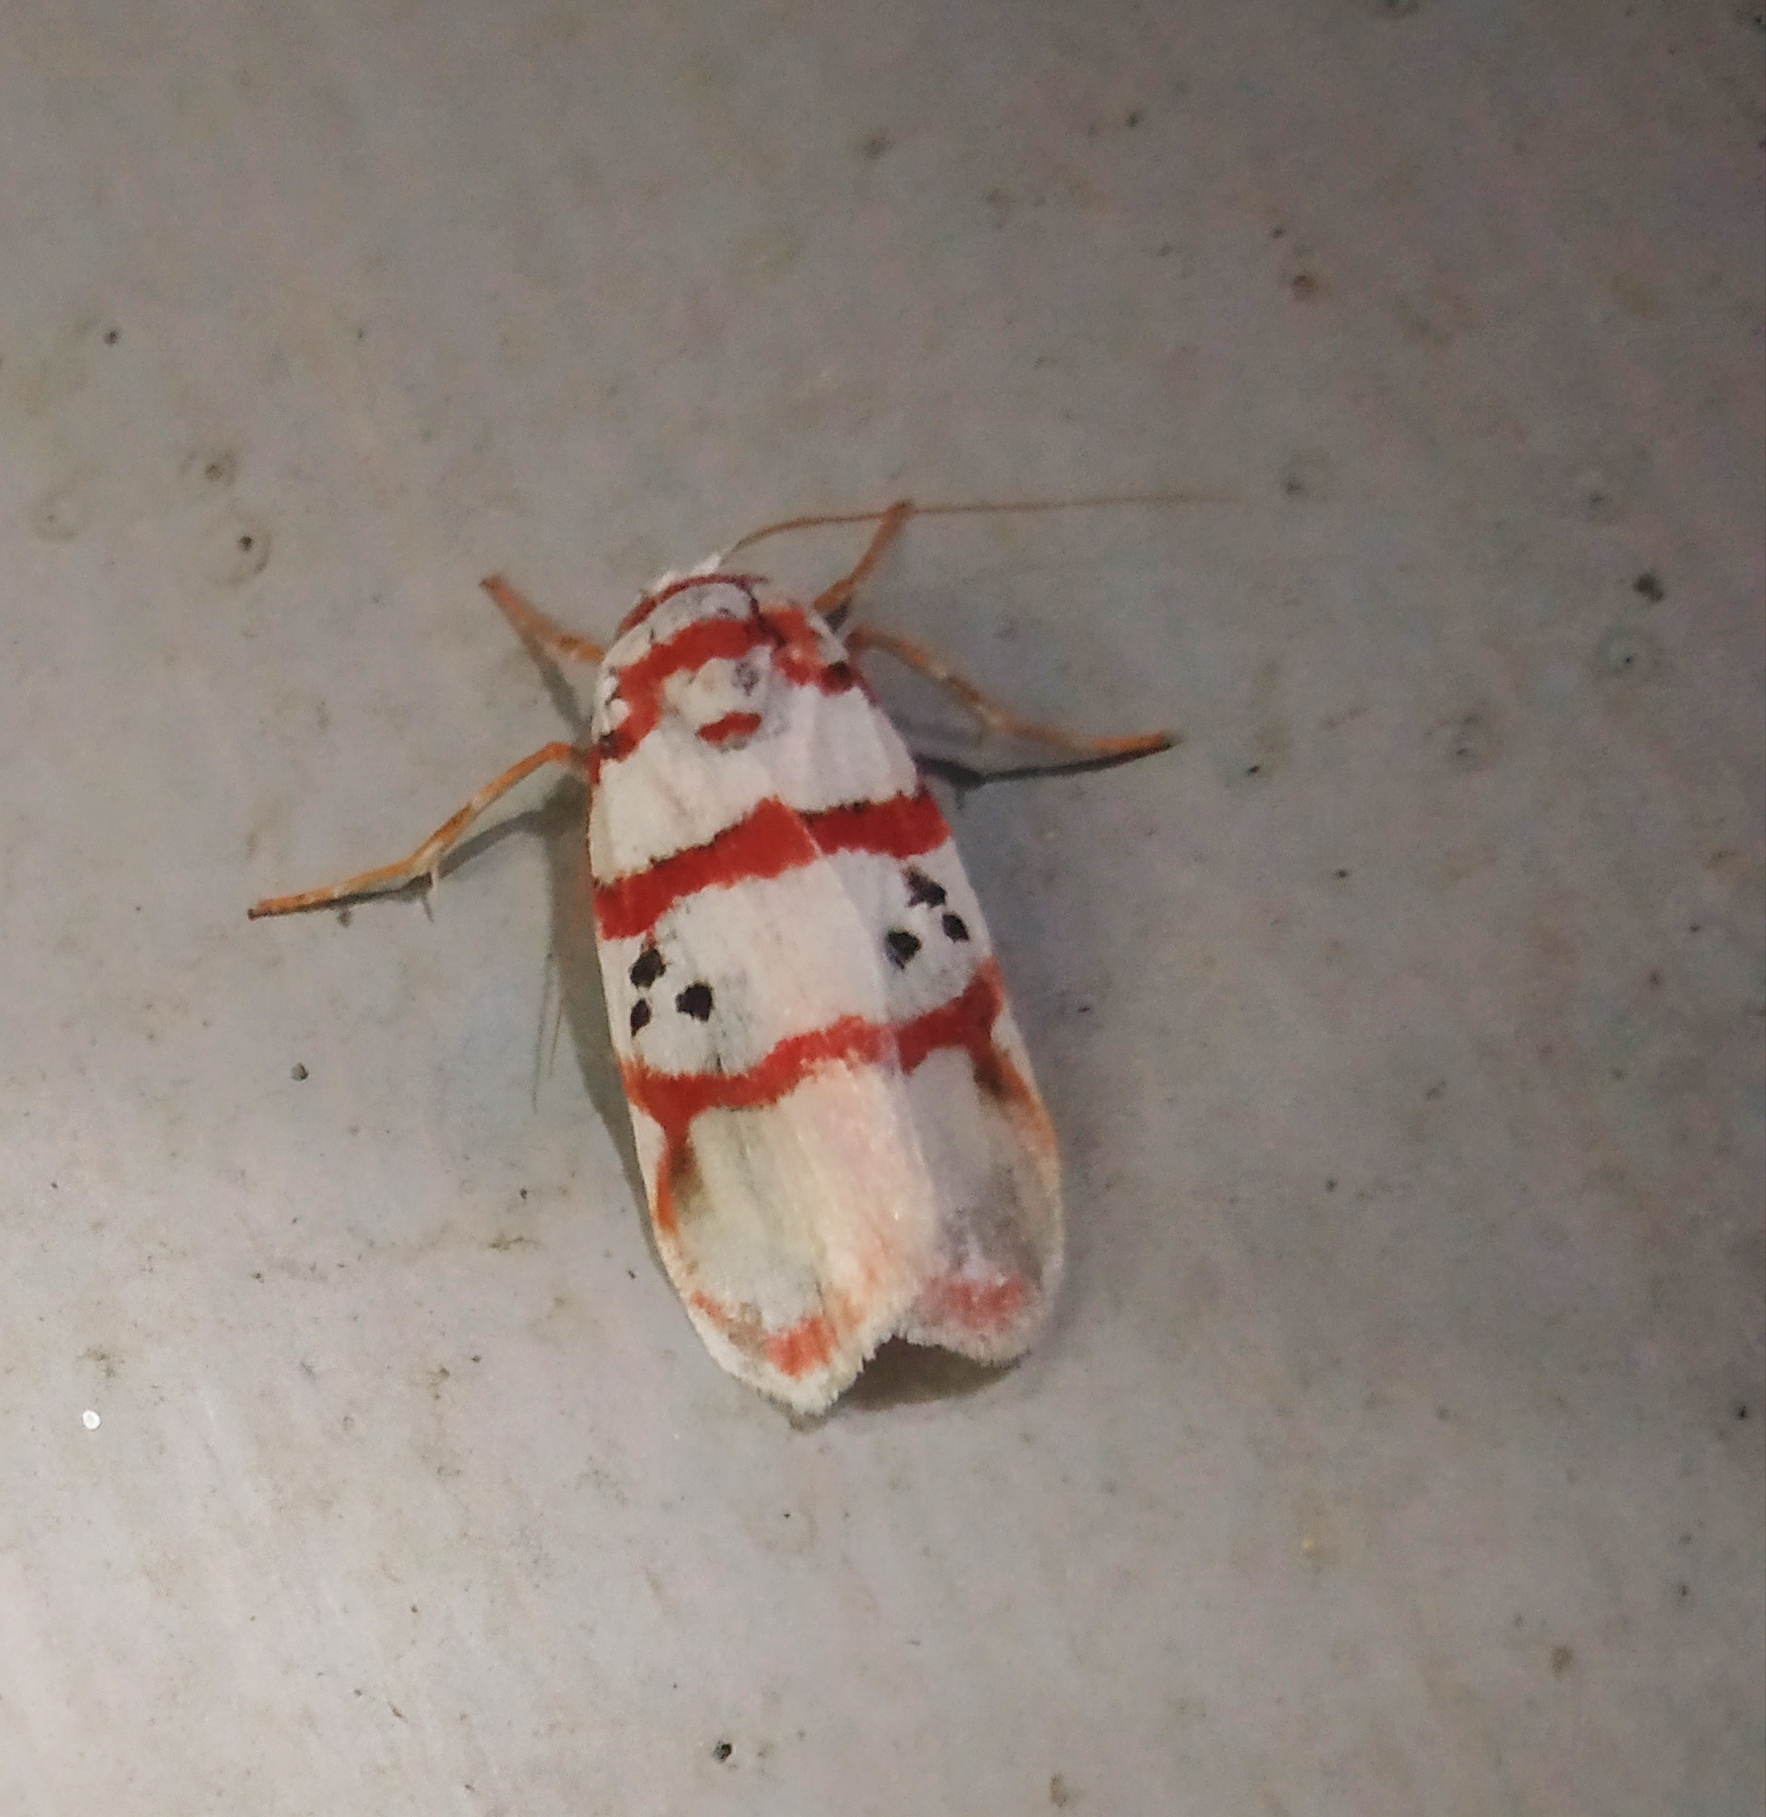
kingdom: Animalia
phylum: Arthropoda
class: Insecta
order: Lepidoptera
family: Erebidae
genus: Cyana
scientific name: Cyana peregrina
